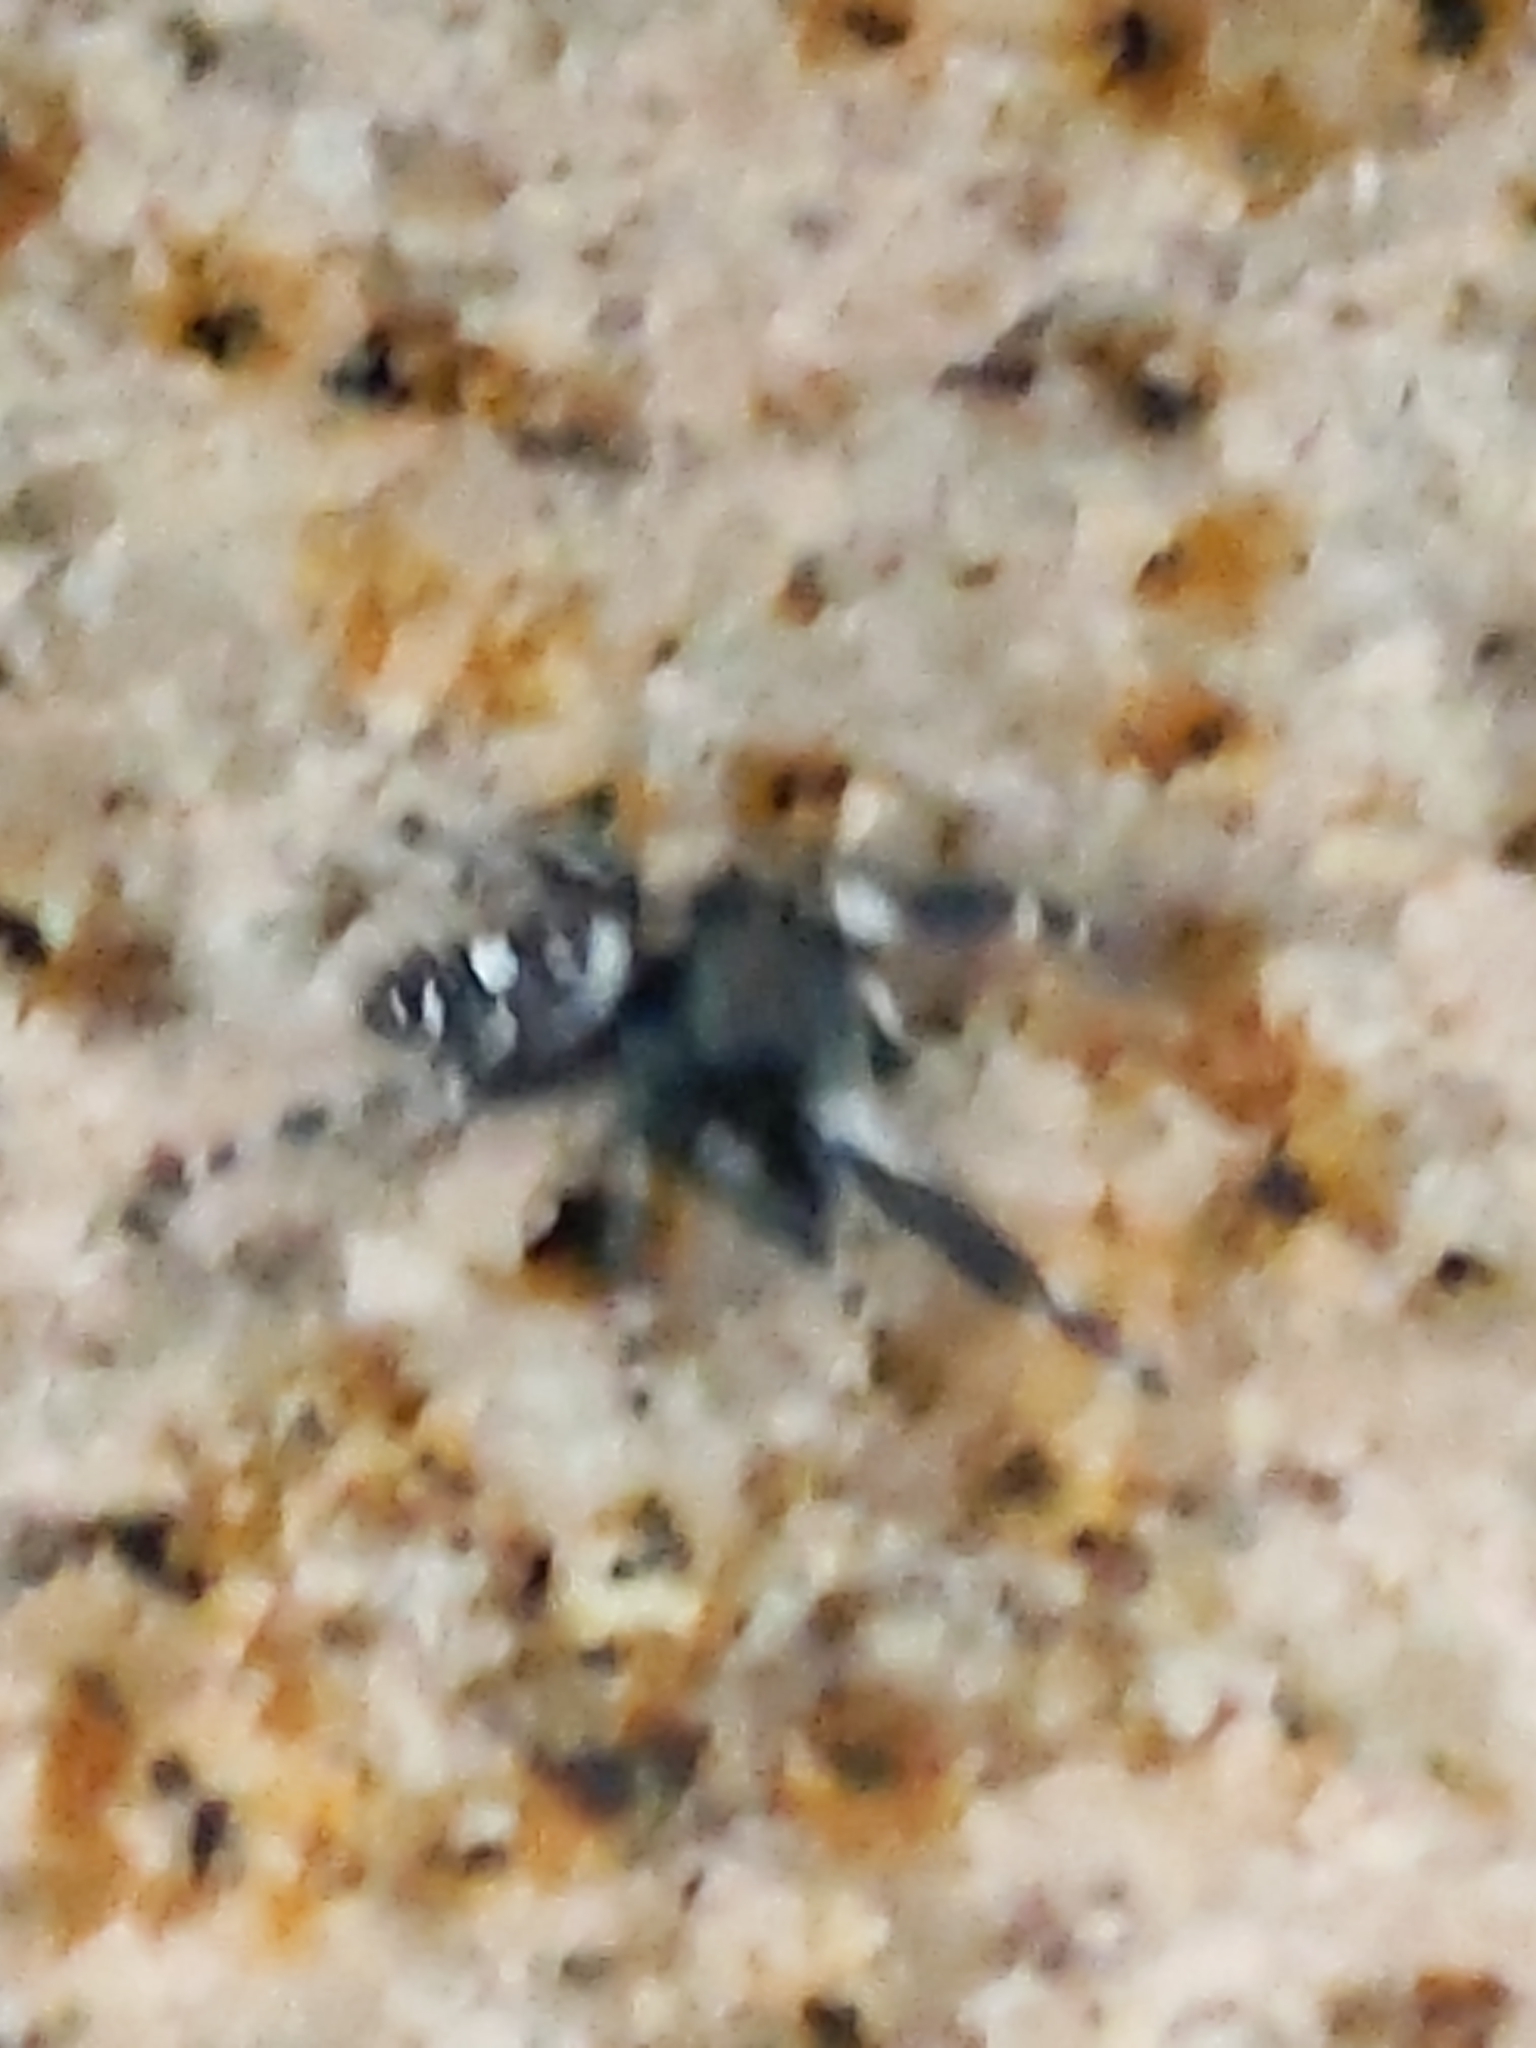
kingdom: Animalia
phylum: Arthropoda
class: Arachnida
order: Araneae
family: Salticidae
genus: Phidippus
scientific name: Phidippus audax
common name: Bold jumper
